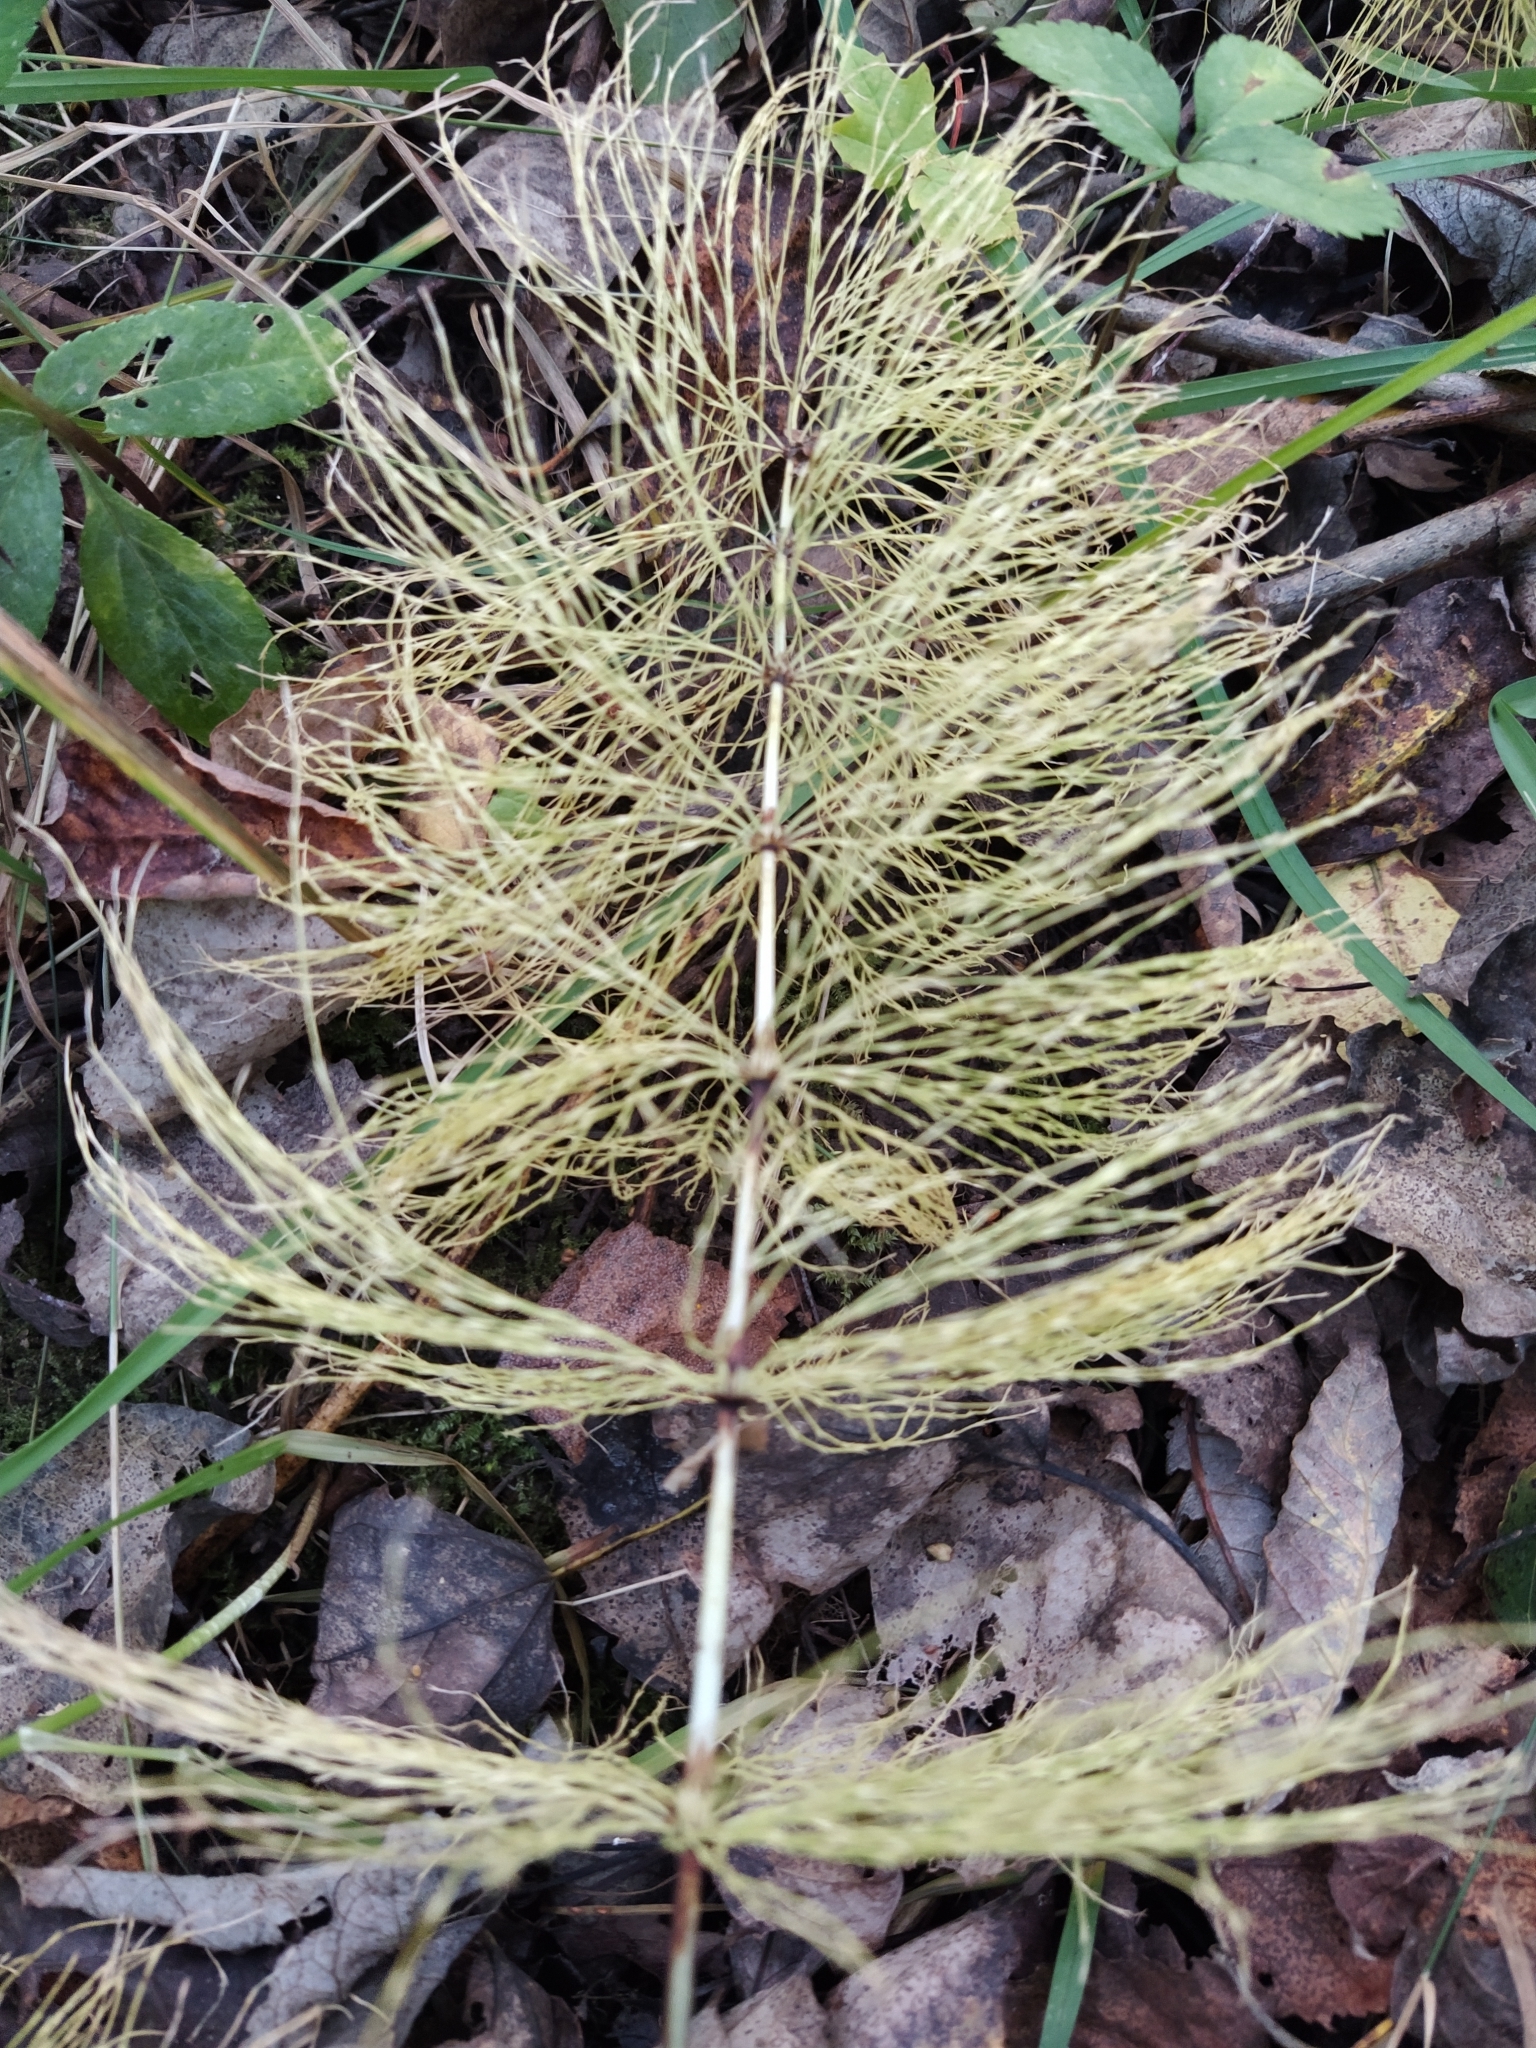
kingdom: Plantae
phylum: Tracheophyta
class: Polypodiopsida
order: Equisetales
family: Equisetaceae
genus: Equisetum
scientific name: Equisetum sylvaticum
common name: Wood horsetail
